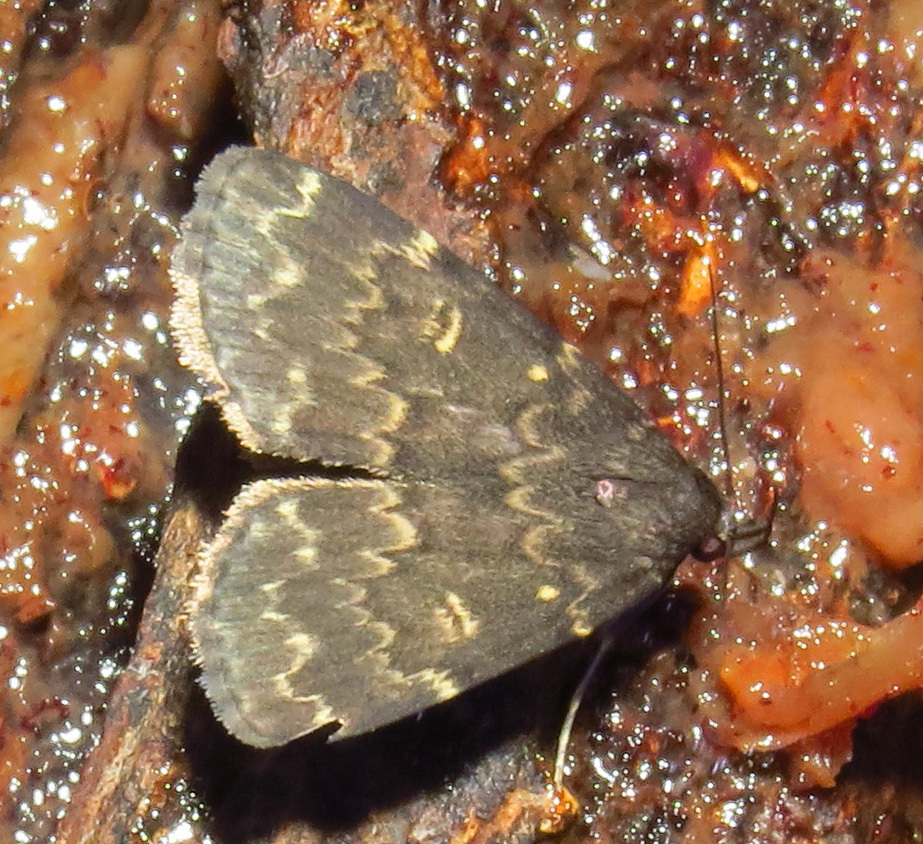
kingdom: Animalia
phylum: Arthropoda
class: Insecta
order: Lepidoptera
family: Erebidae
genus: Idia
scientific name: Idia lubricalis
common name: Twin-striped tabby
